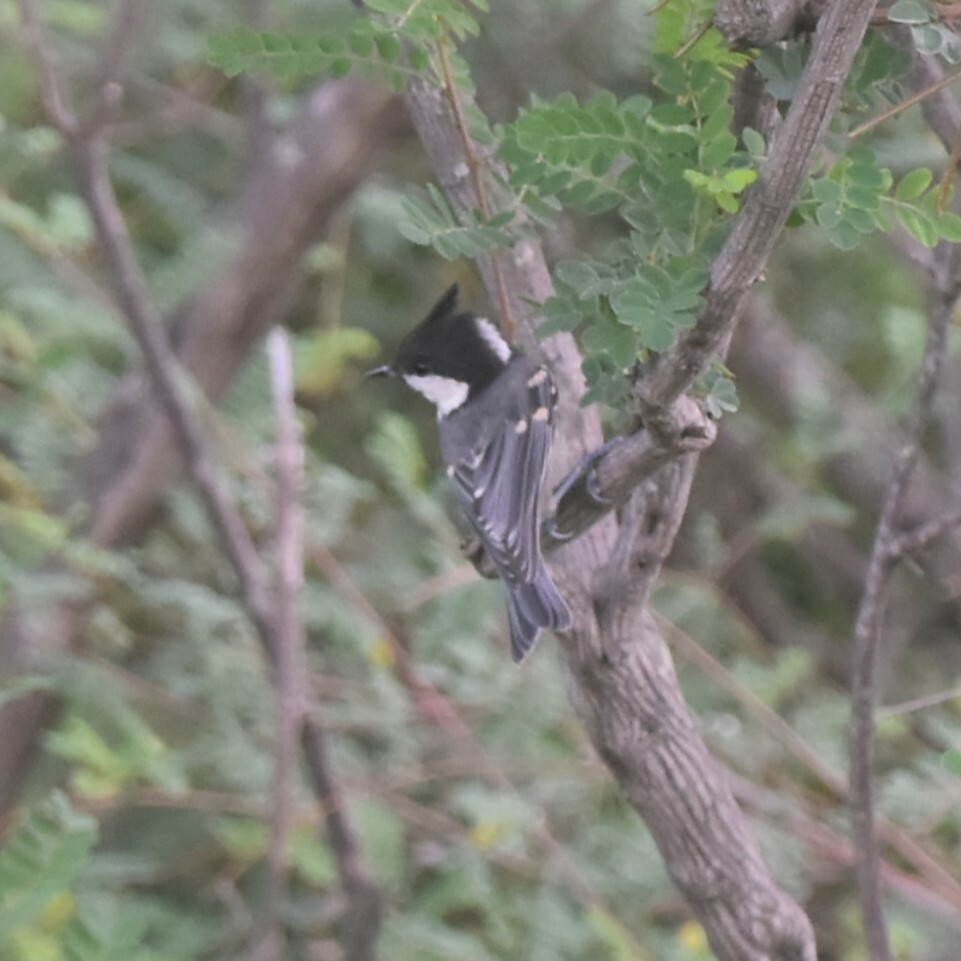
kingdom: Animalia
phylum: Chordata
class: Aves
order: Passeriformes
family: Paridae
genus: Periparus
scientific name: Periparus ater
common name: Coal tit
